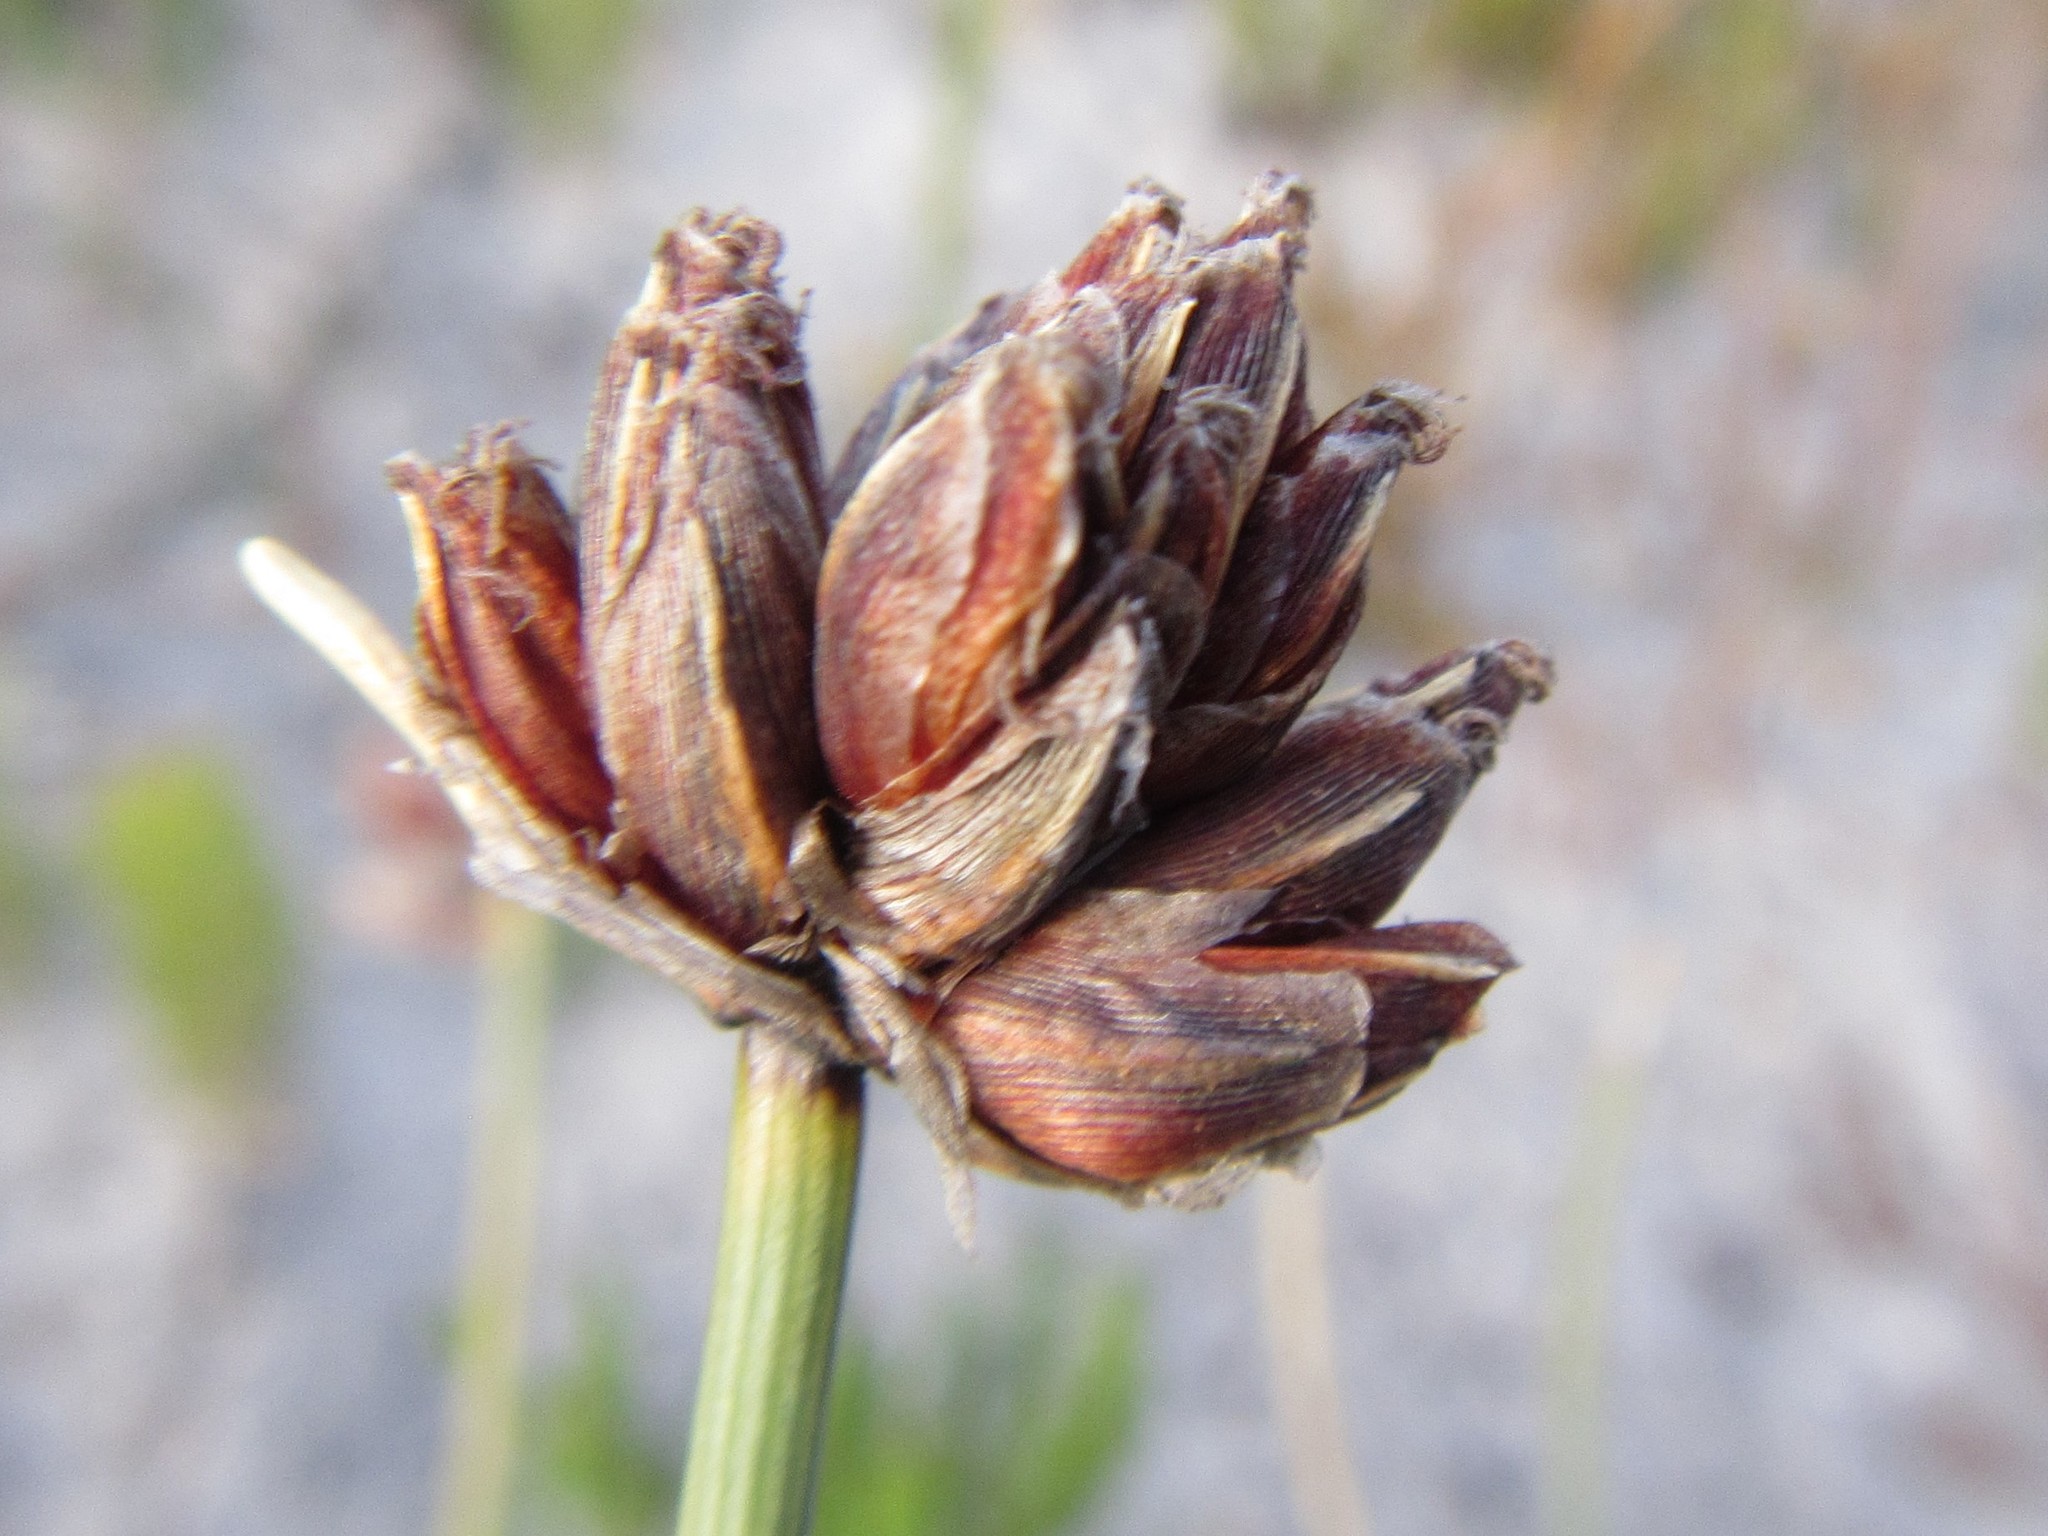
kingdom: Plantae
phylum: Tracheophyta
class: Liliopsida
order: Poales
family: Cyperaceae
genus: Ficinia
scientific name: Ficinia pinguior
